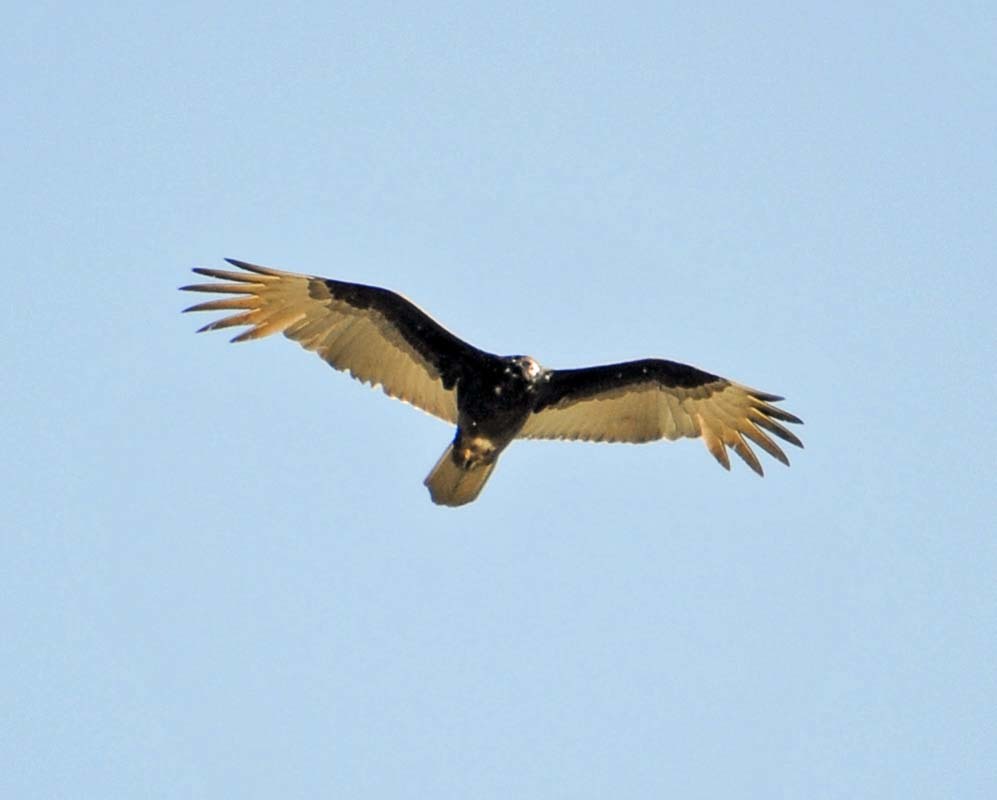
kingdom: Animalia
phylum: Chordata
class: Aves
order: Accipitriformes
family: Cathartidae
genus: Cathartes
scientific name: Cathartes aura
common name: Turkey vulture
